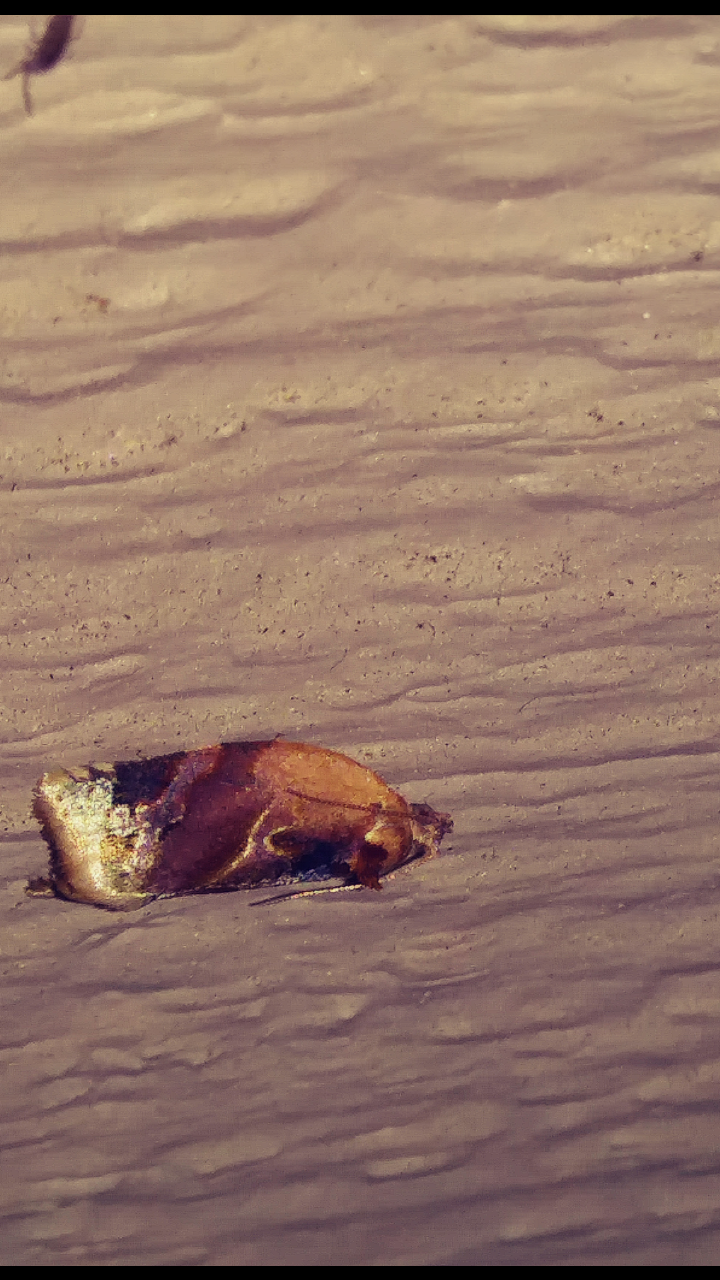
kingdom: Animalia
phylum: Arthropoda
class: Insecta
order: Lepidoptera
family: Tortricidae
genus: Argyrotaenia
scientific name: Argyrotaenia velutinana
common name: Red-banded leafroller moth
